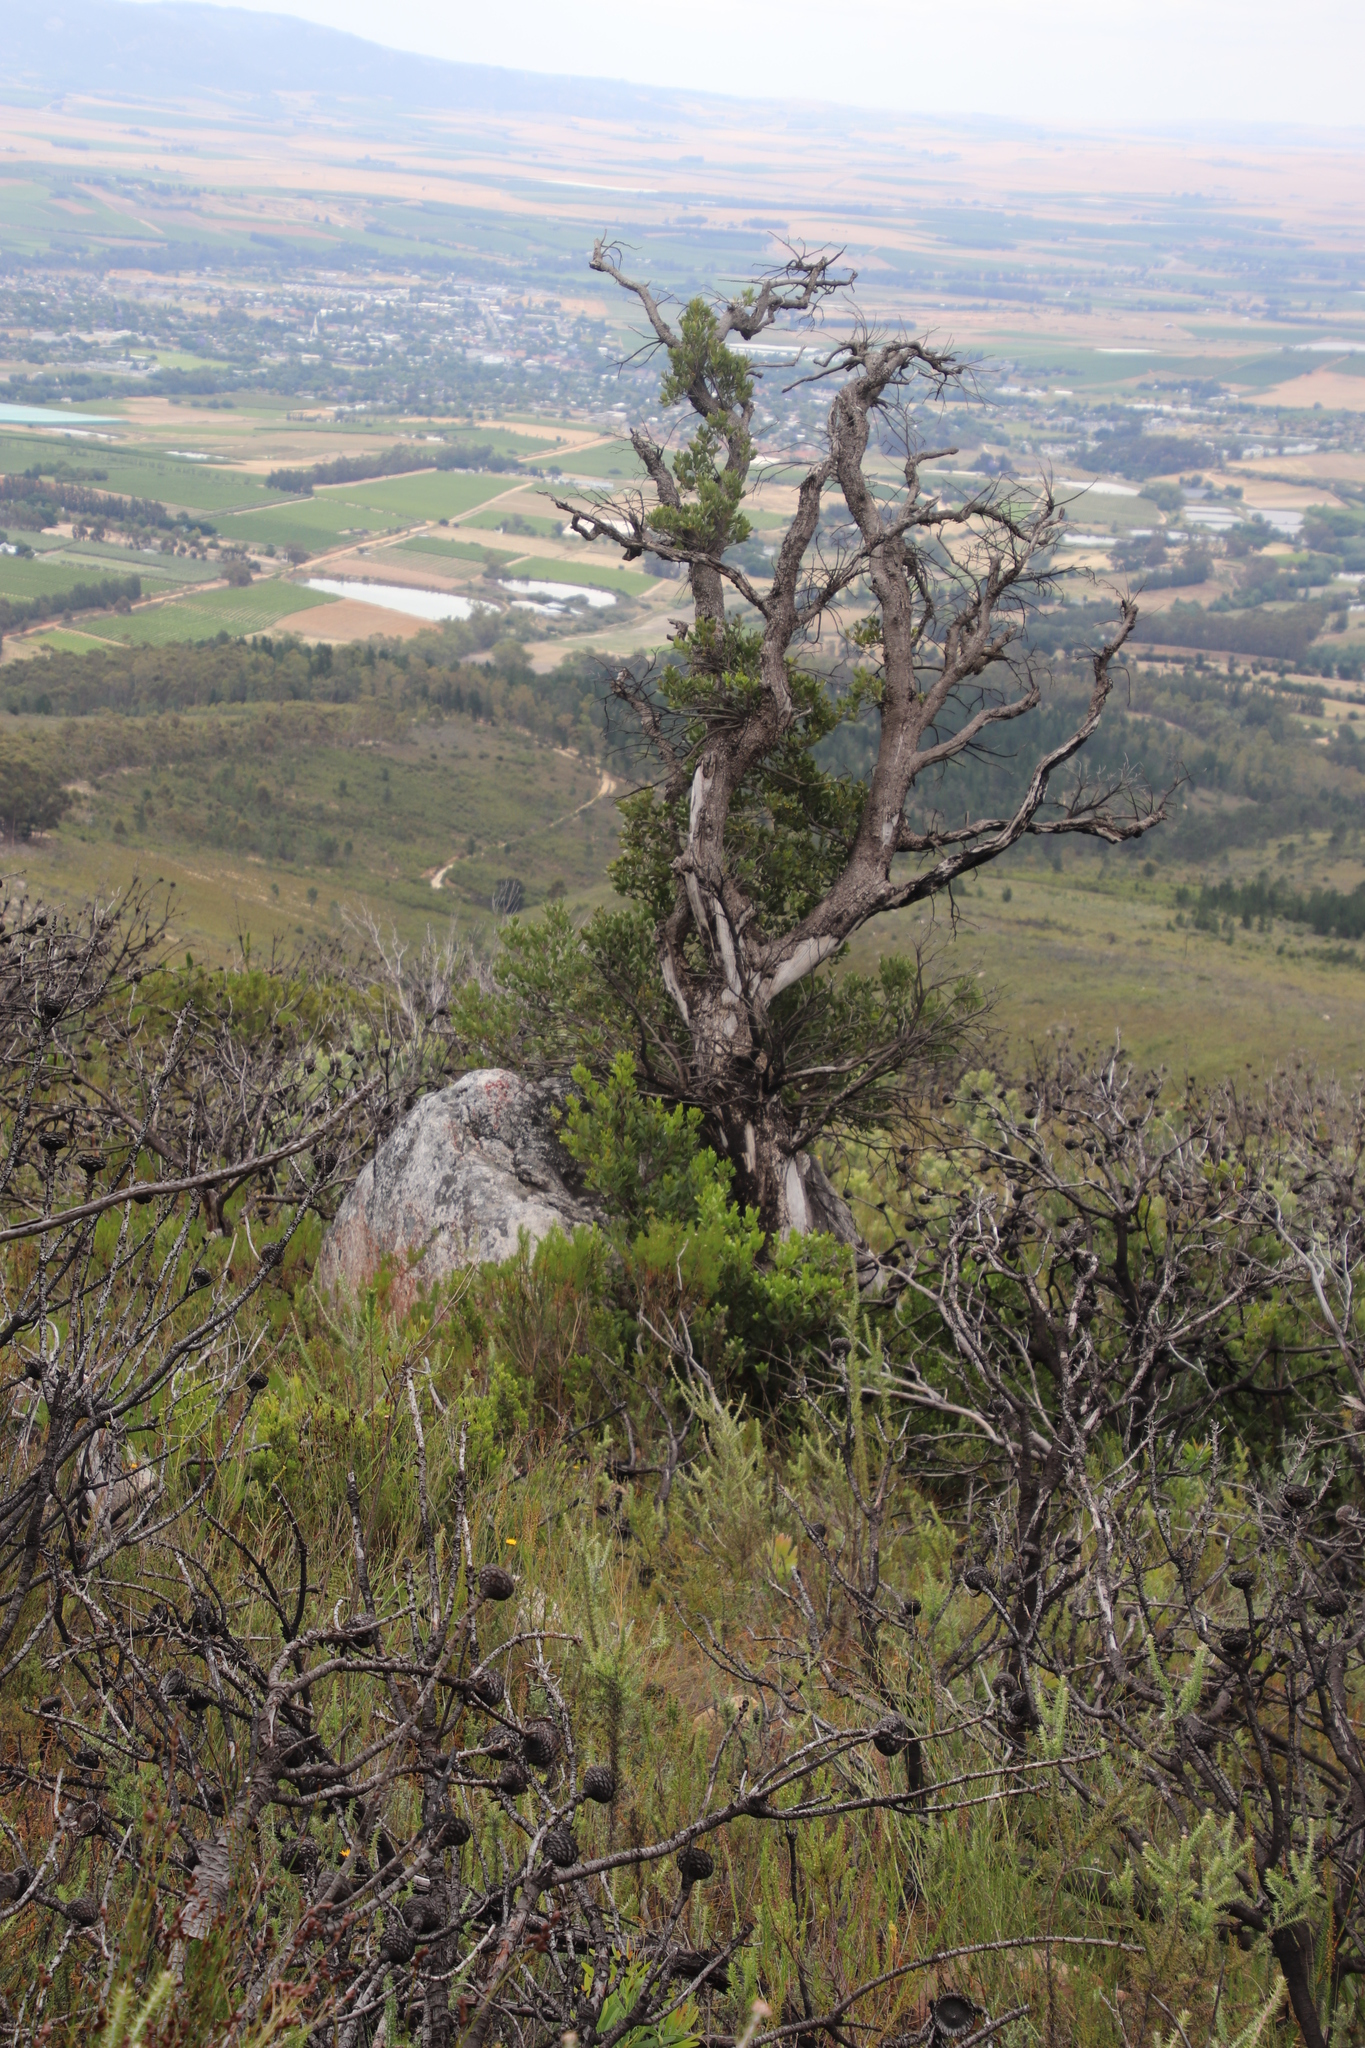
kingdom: Plantae
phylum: Tracheophyta
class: Magnoliopsida
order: Celastrales
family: Celastraceae
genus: Gymnosporia
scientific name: Gymnosporia laurina
